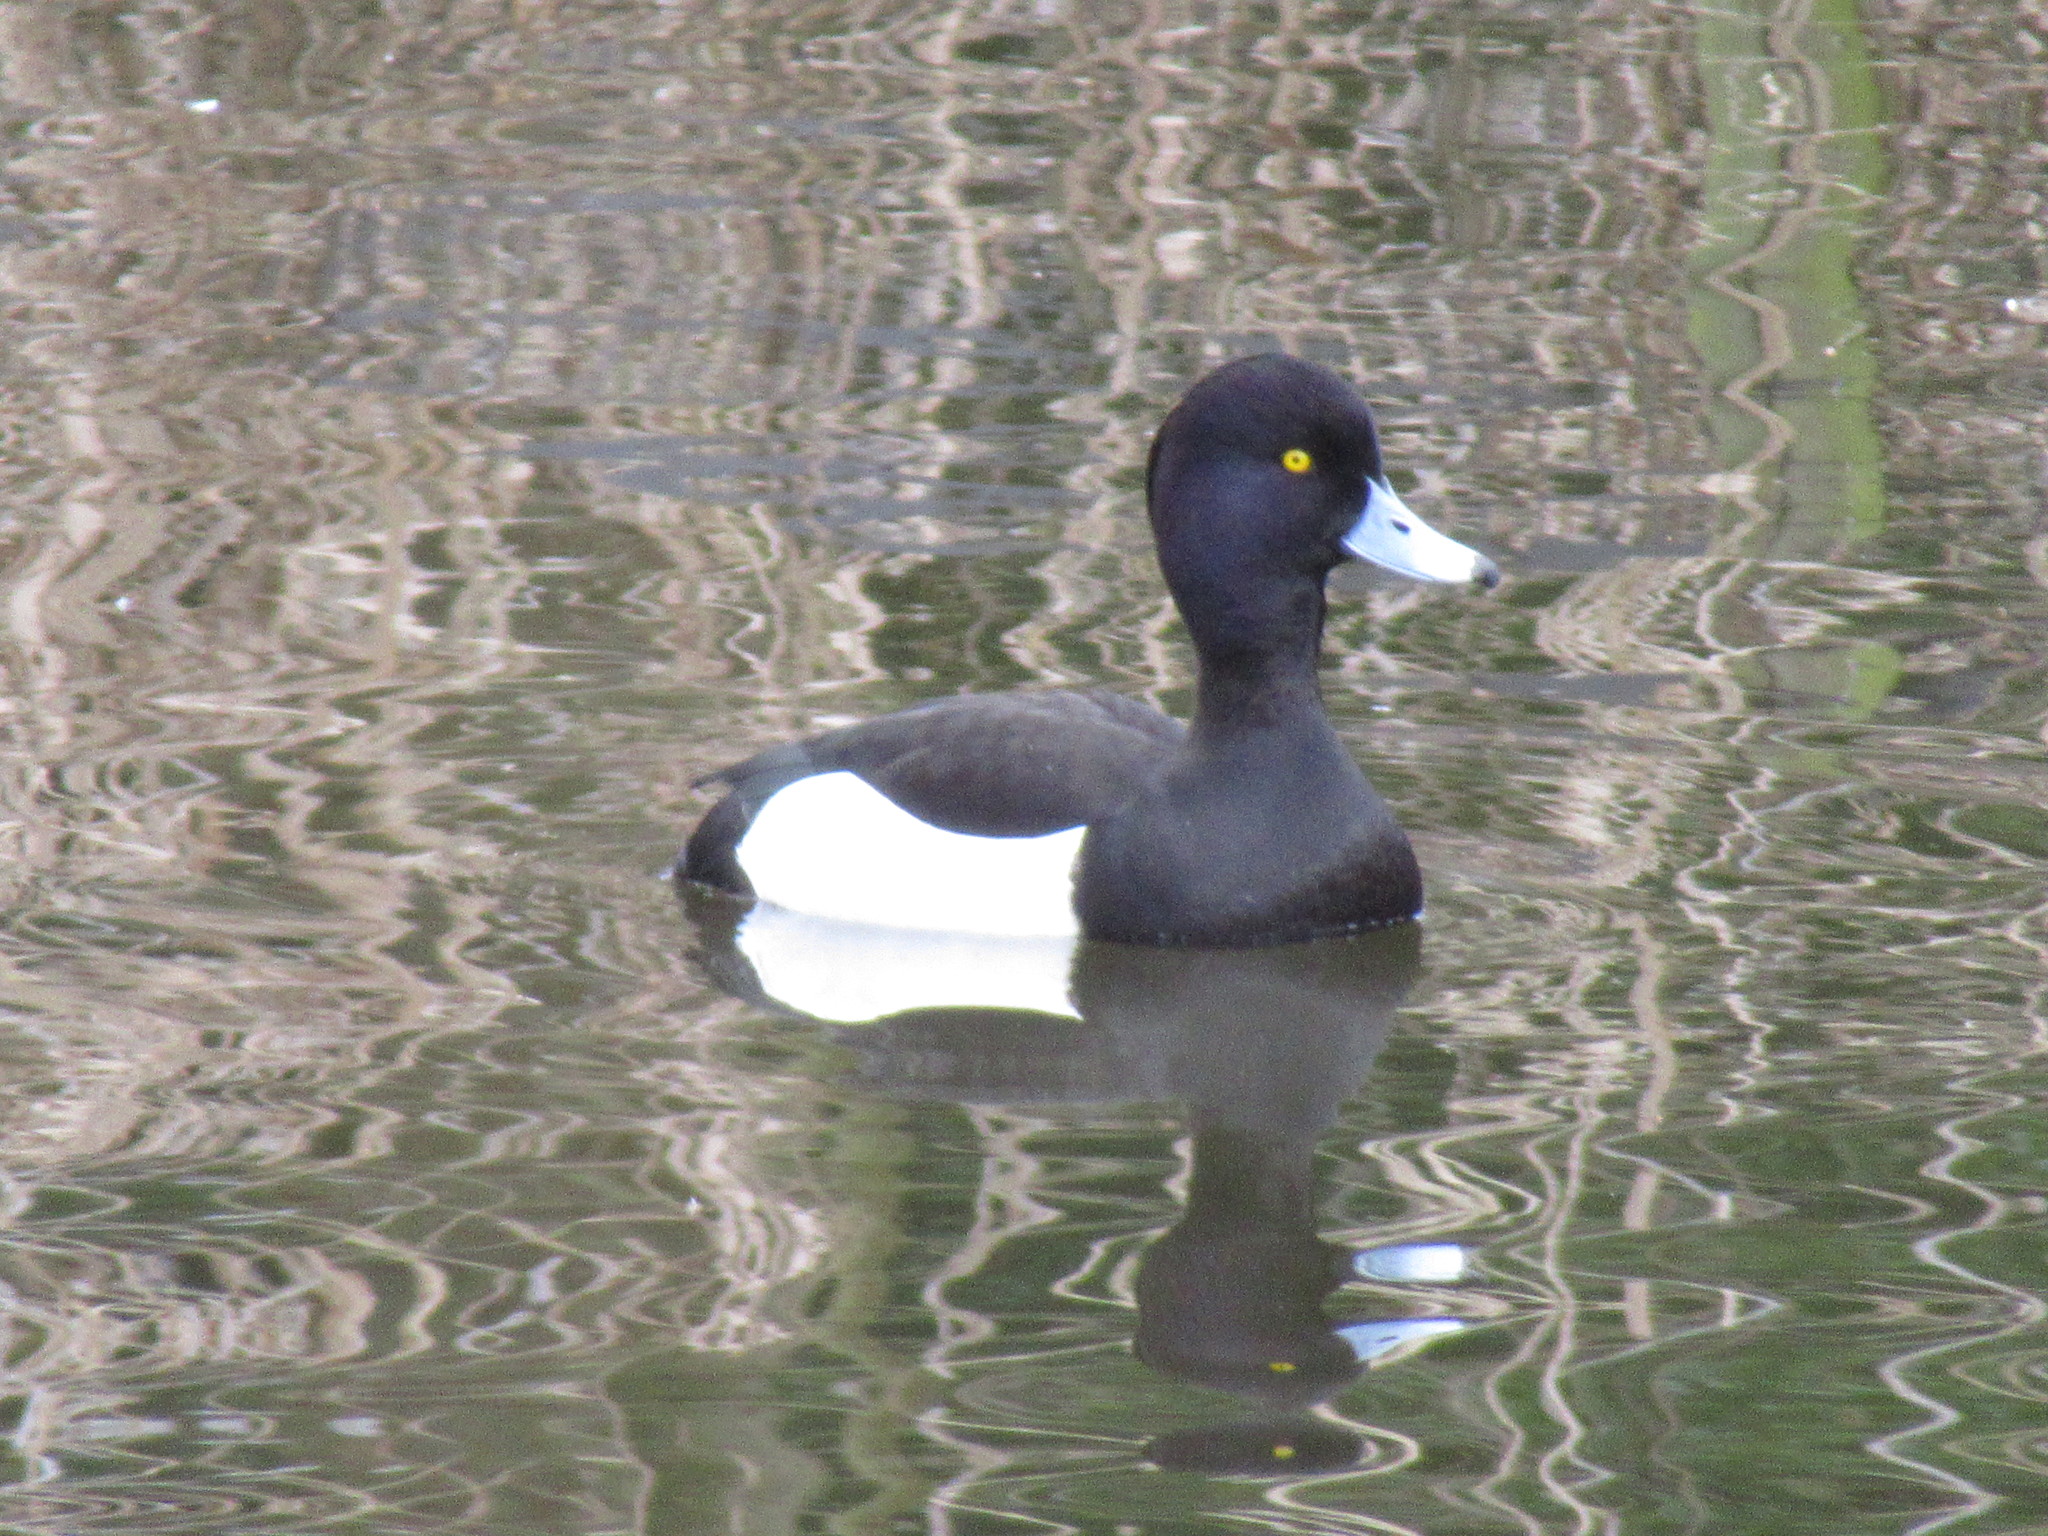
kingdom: Animalia
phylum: Chordata
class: Aves
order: Anseriformes
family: Anatidae
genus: Aythya
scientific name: Aythya fuligula
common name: Tufted duck
